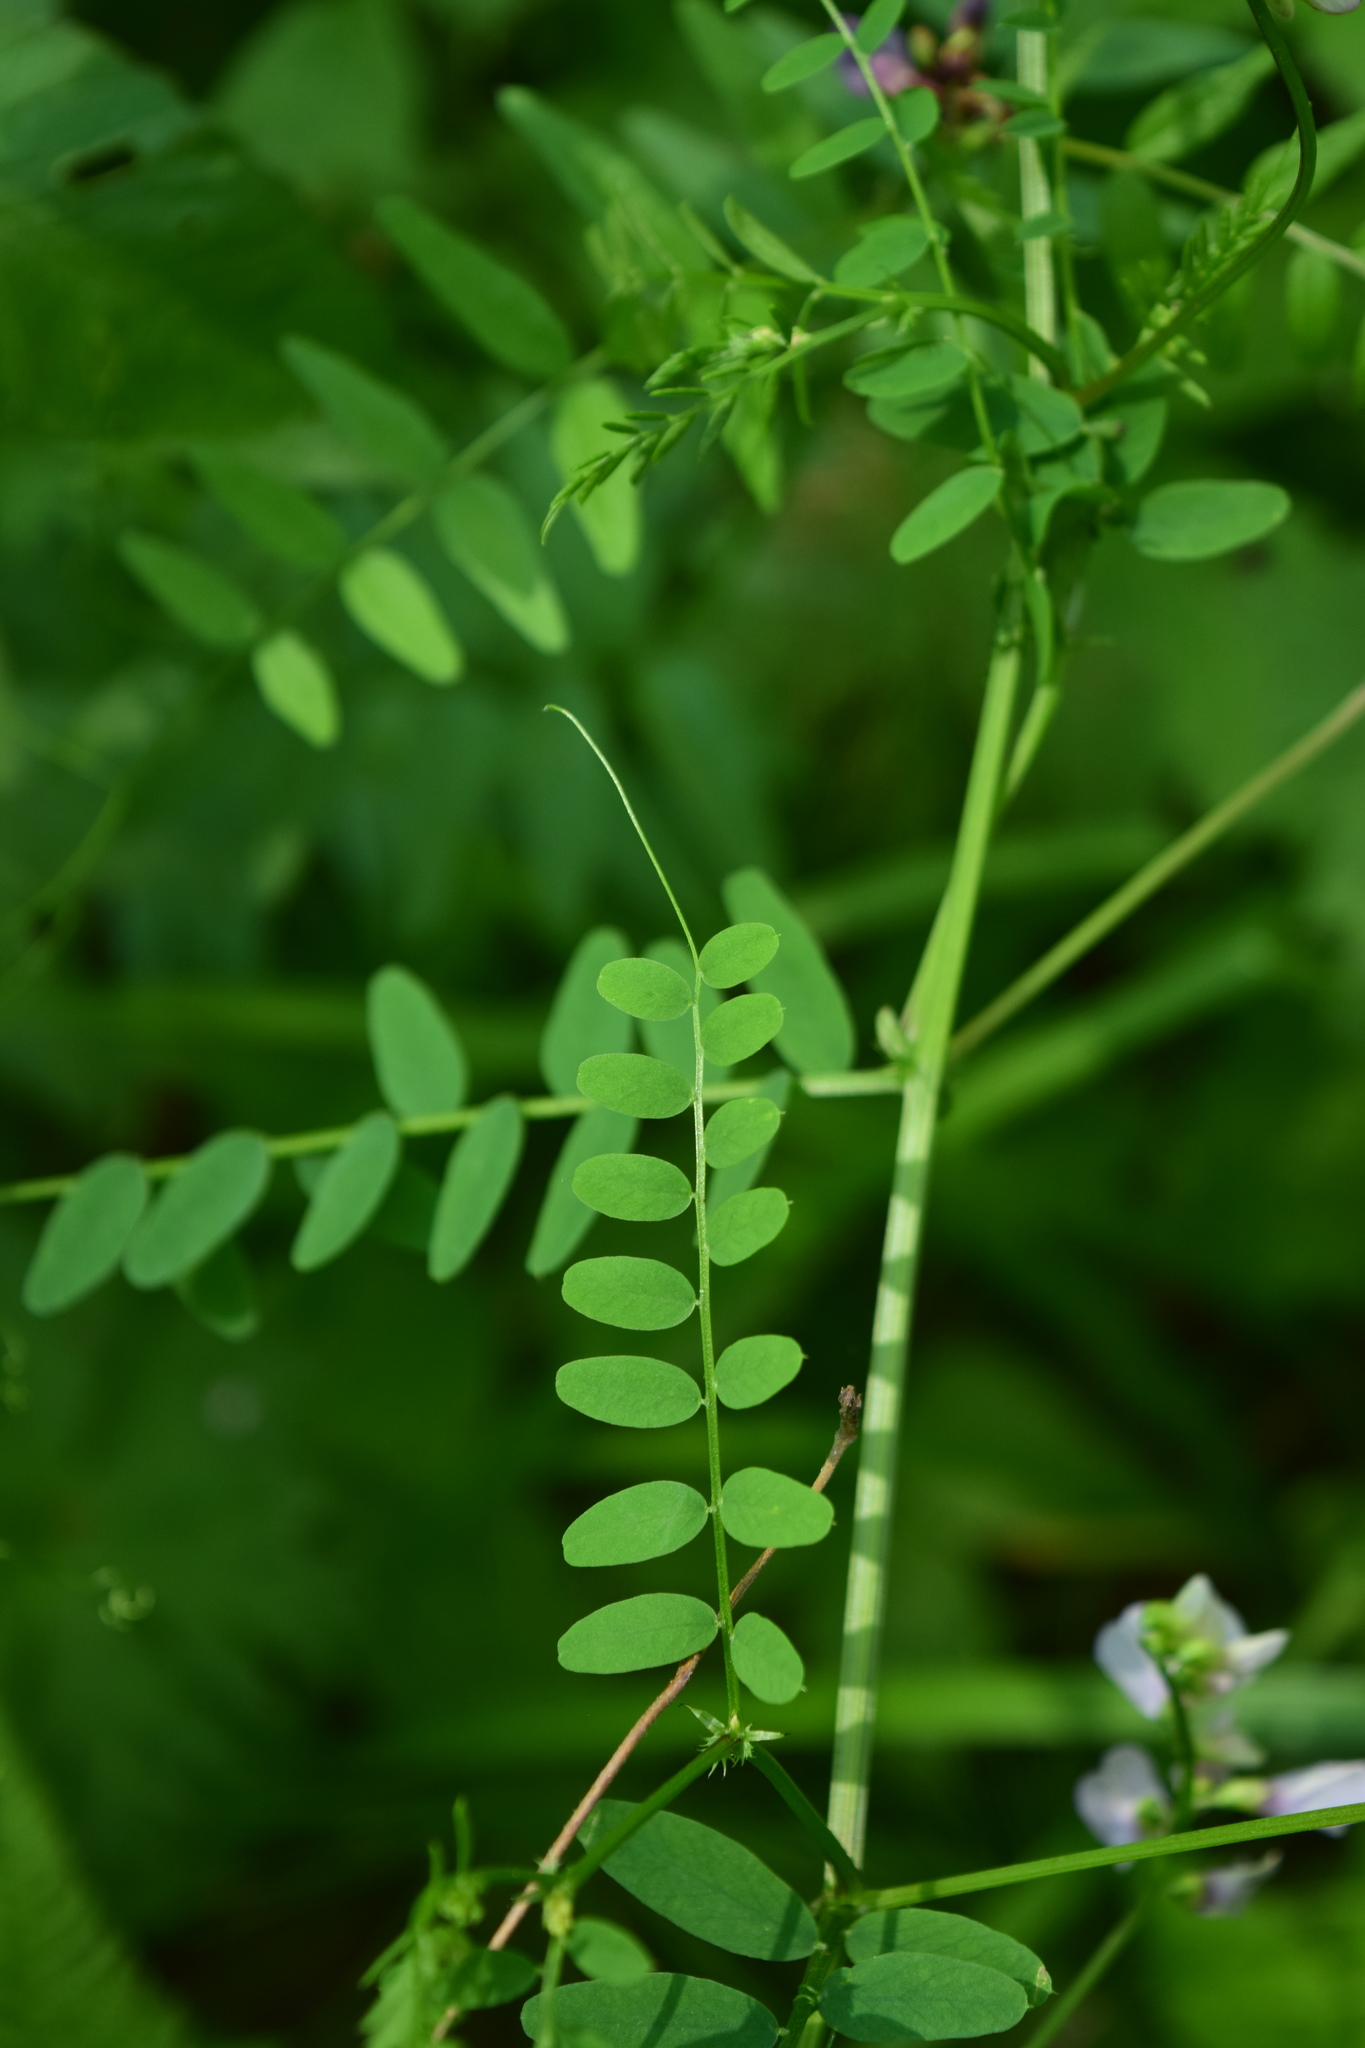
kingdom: Plantae
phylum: Tracheophyta
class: Magnoliopsida
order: Fabales
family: Fabaceae
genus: Vicia
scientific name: Vicia sylvatica
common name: Wood vetch
